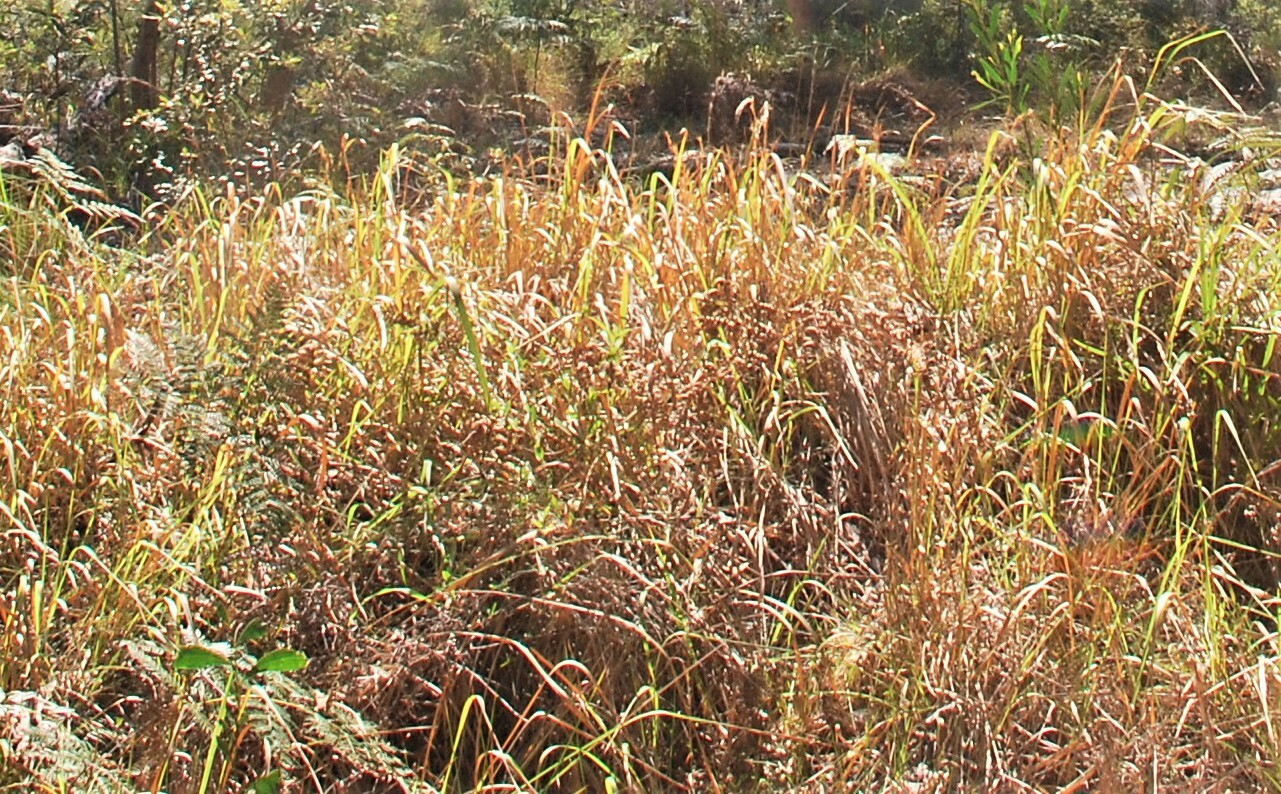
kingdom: Plantae
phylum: Tracheophyta
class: Liliopsida
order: Poales
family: Poaceae
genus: Imperata
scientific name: Imperata cylindrica
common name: Cogongrass
